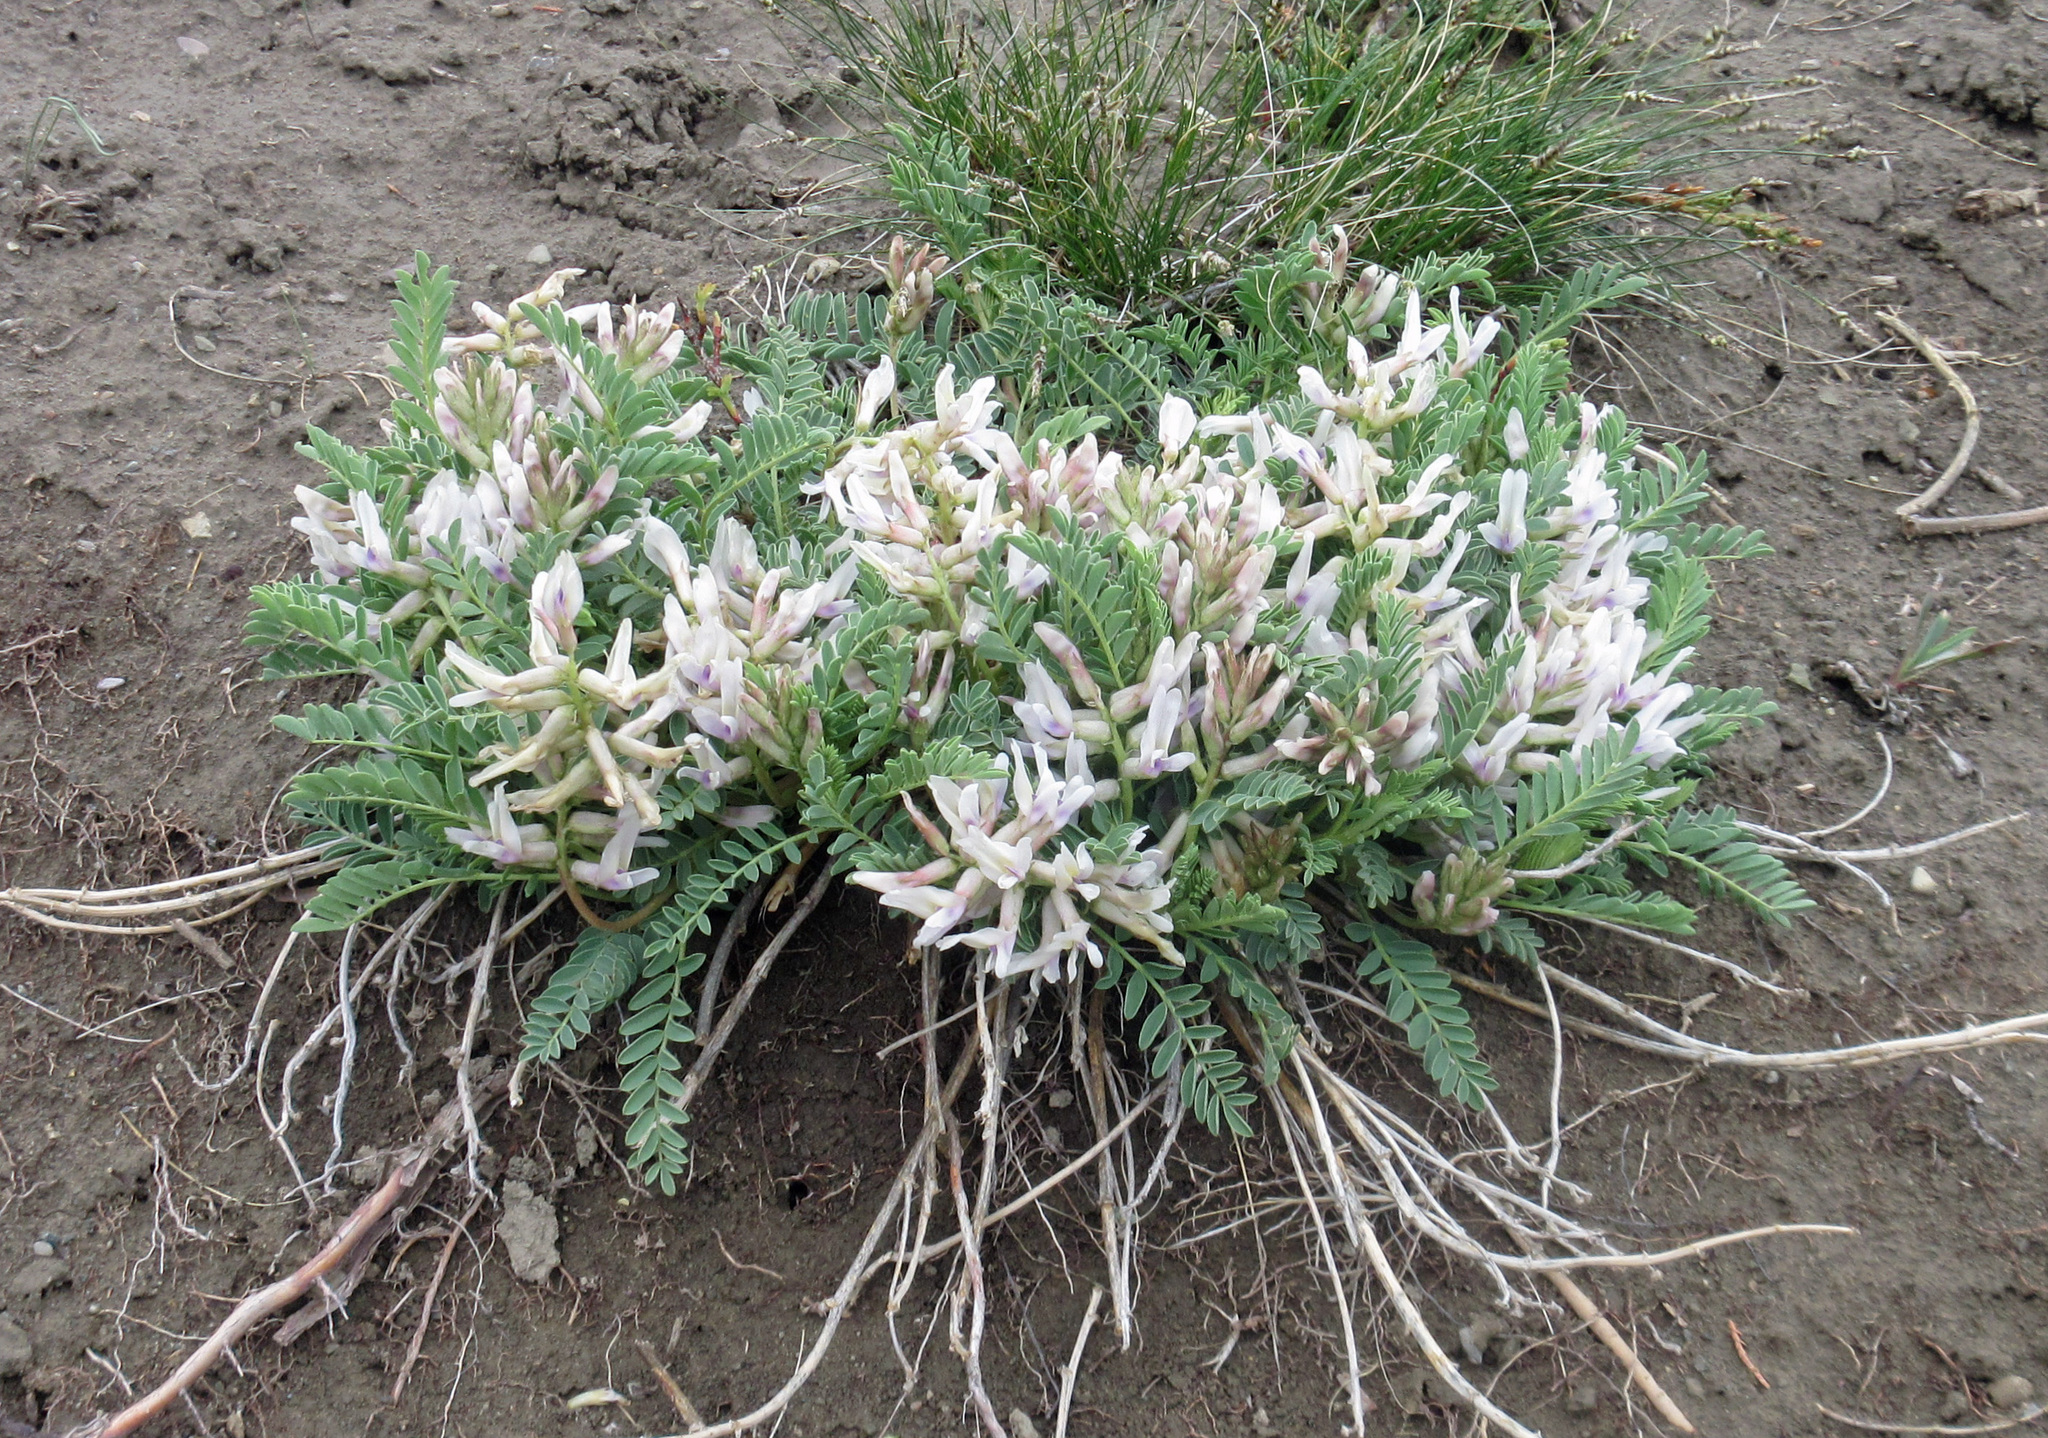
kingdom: Plantae
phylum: Tracheophyta
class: Magnoliopsida
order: Fabales
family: Fabaceae
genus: Astragalus
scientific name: Astragalus crassicarpus
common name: Ground-plum milk-vetch
